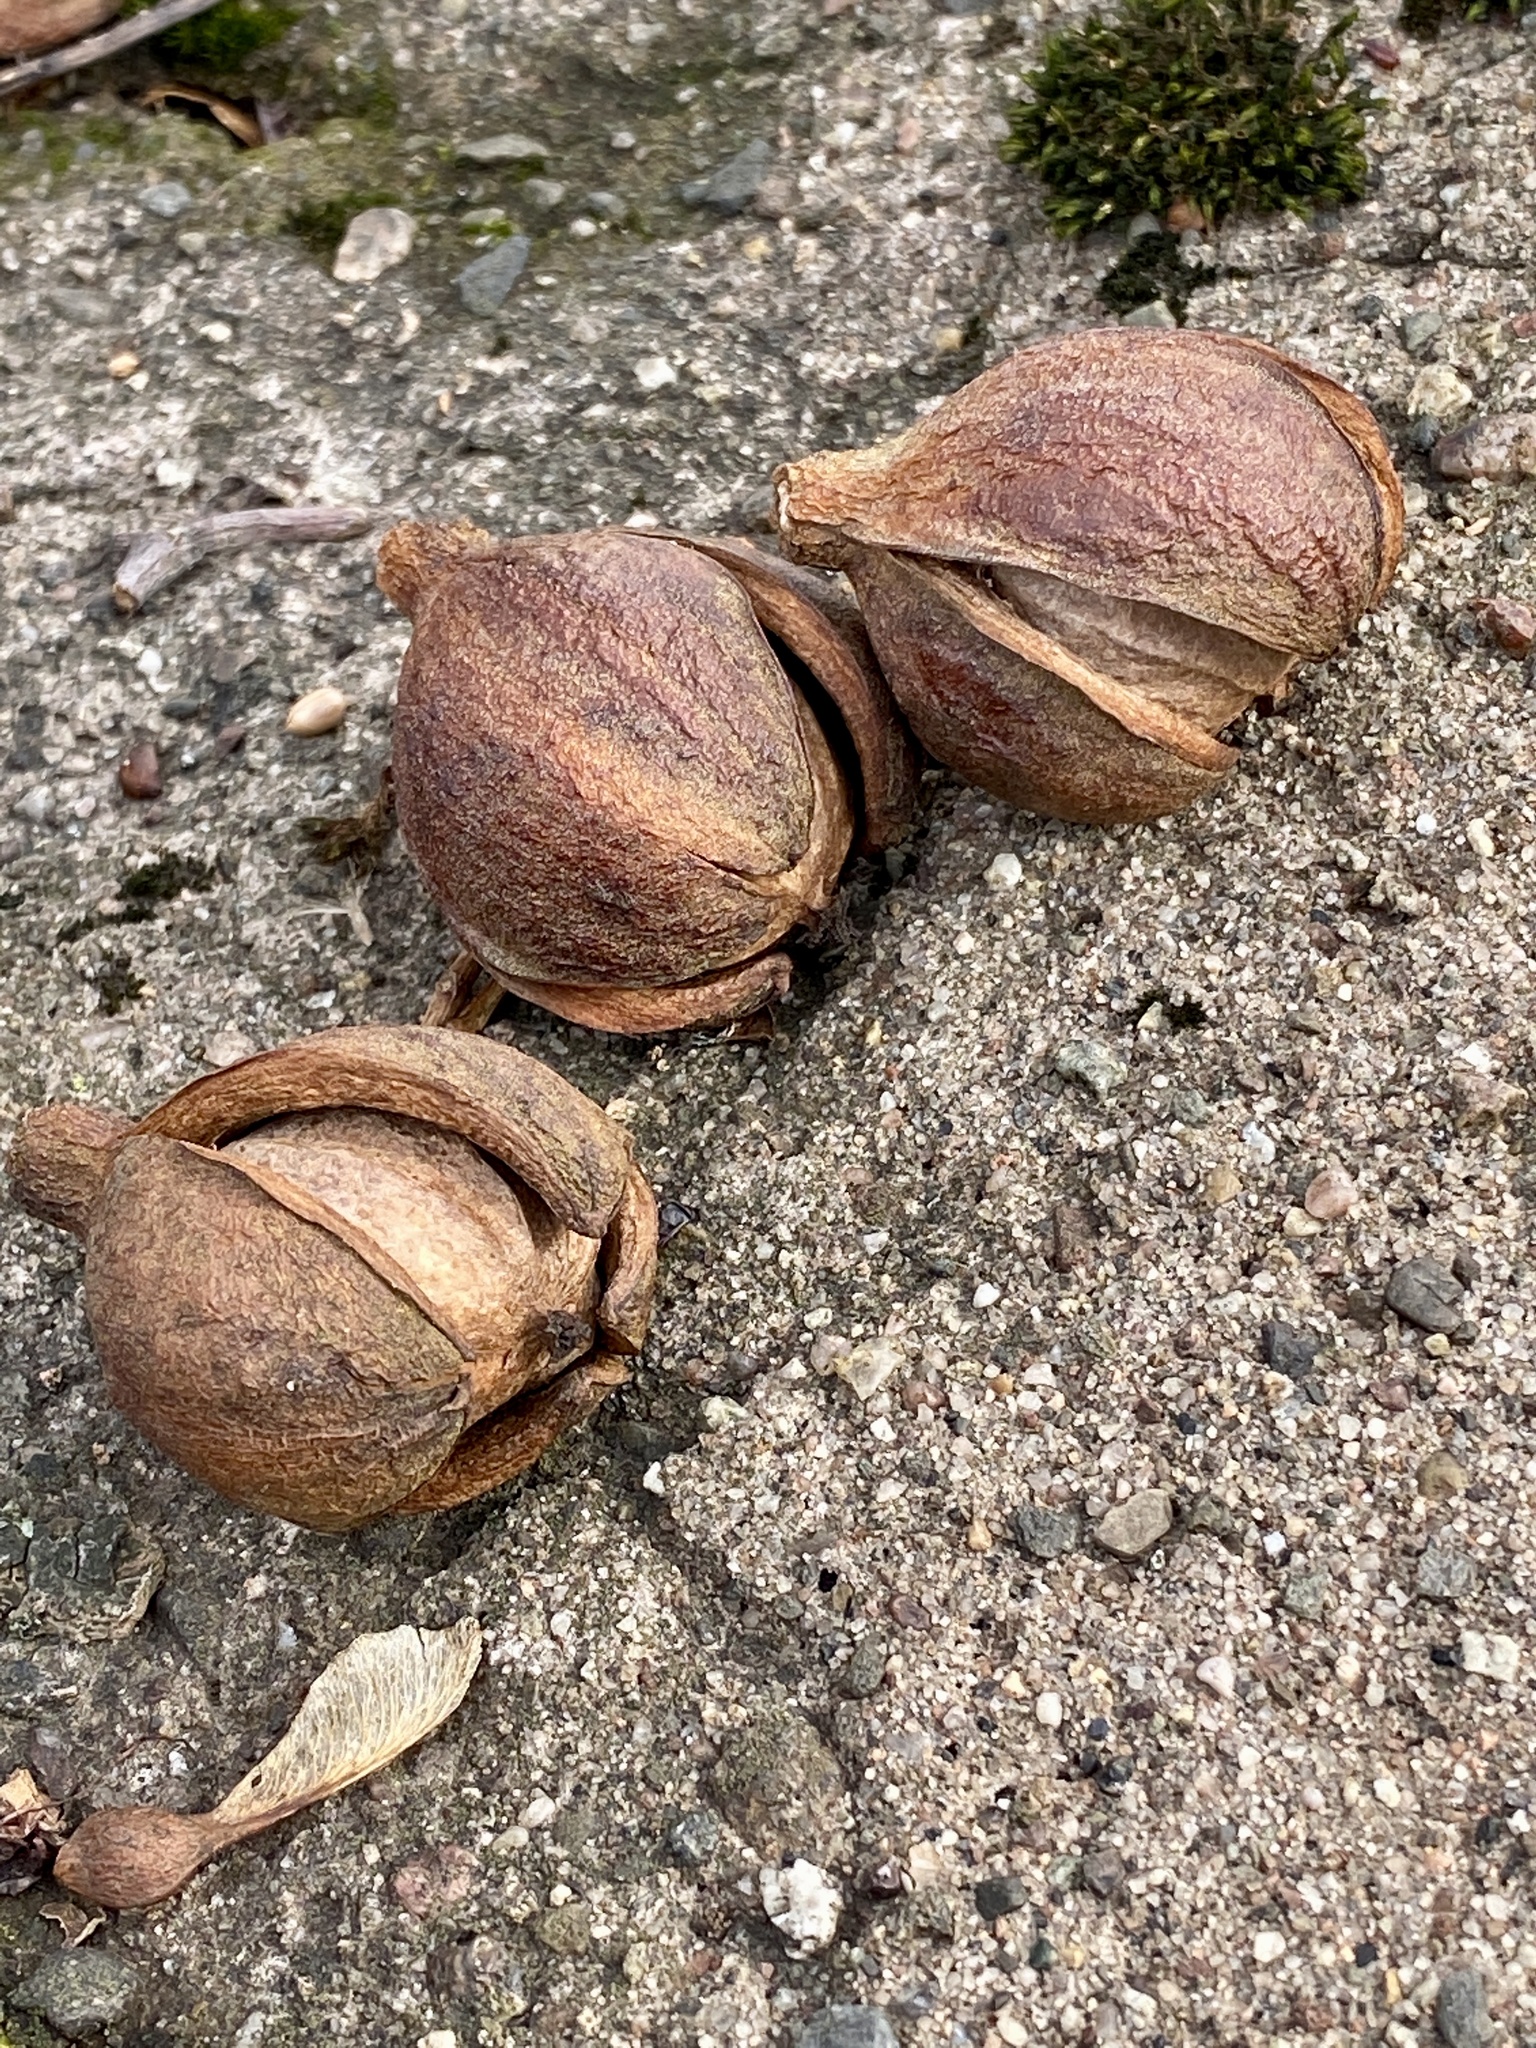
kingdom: Plantae
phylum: Tracheophyta
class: Magnoliopsida
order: Fagales
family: Juglandaceae
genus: Carya
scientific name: Carya glabra
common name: Pignut hickory
